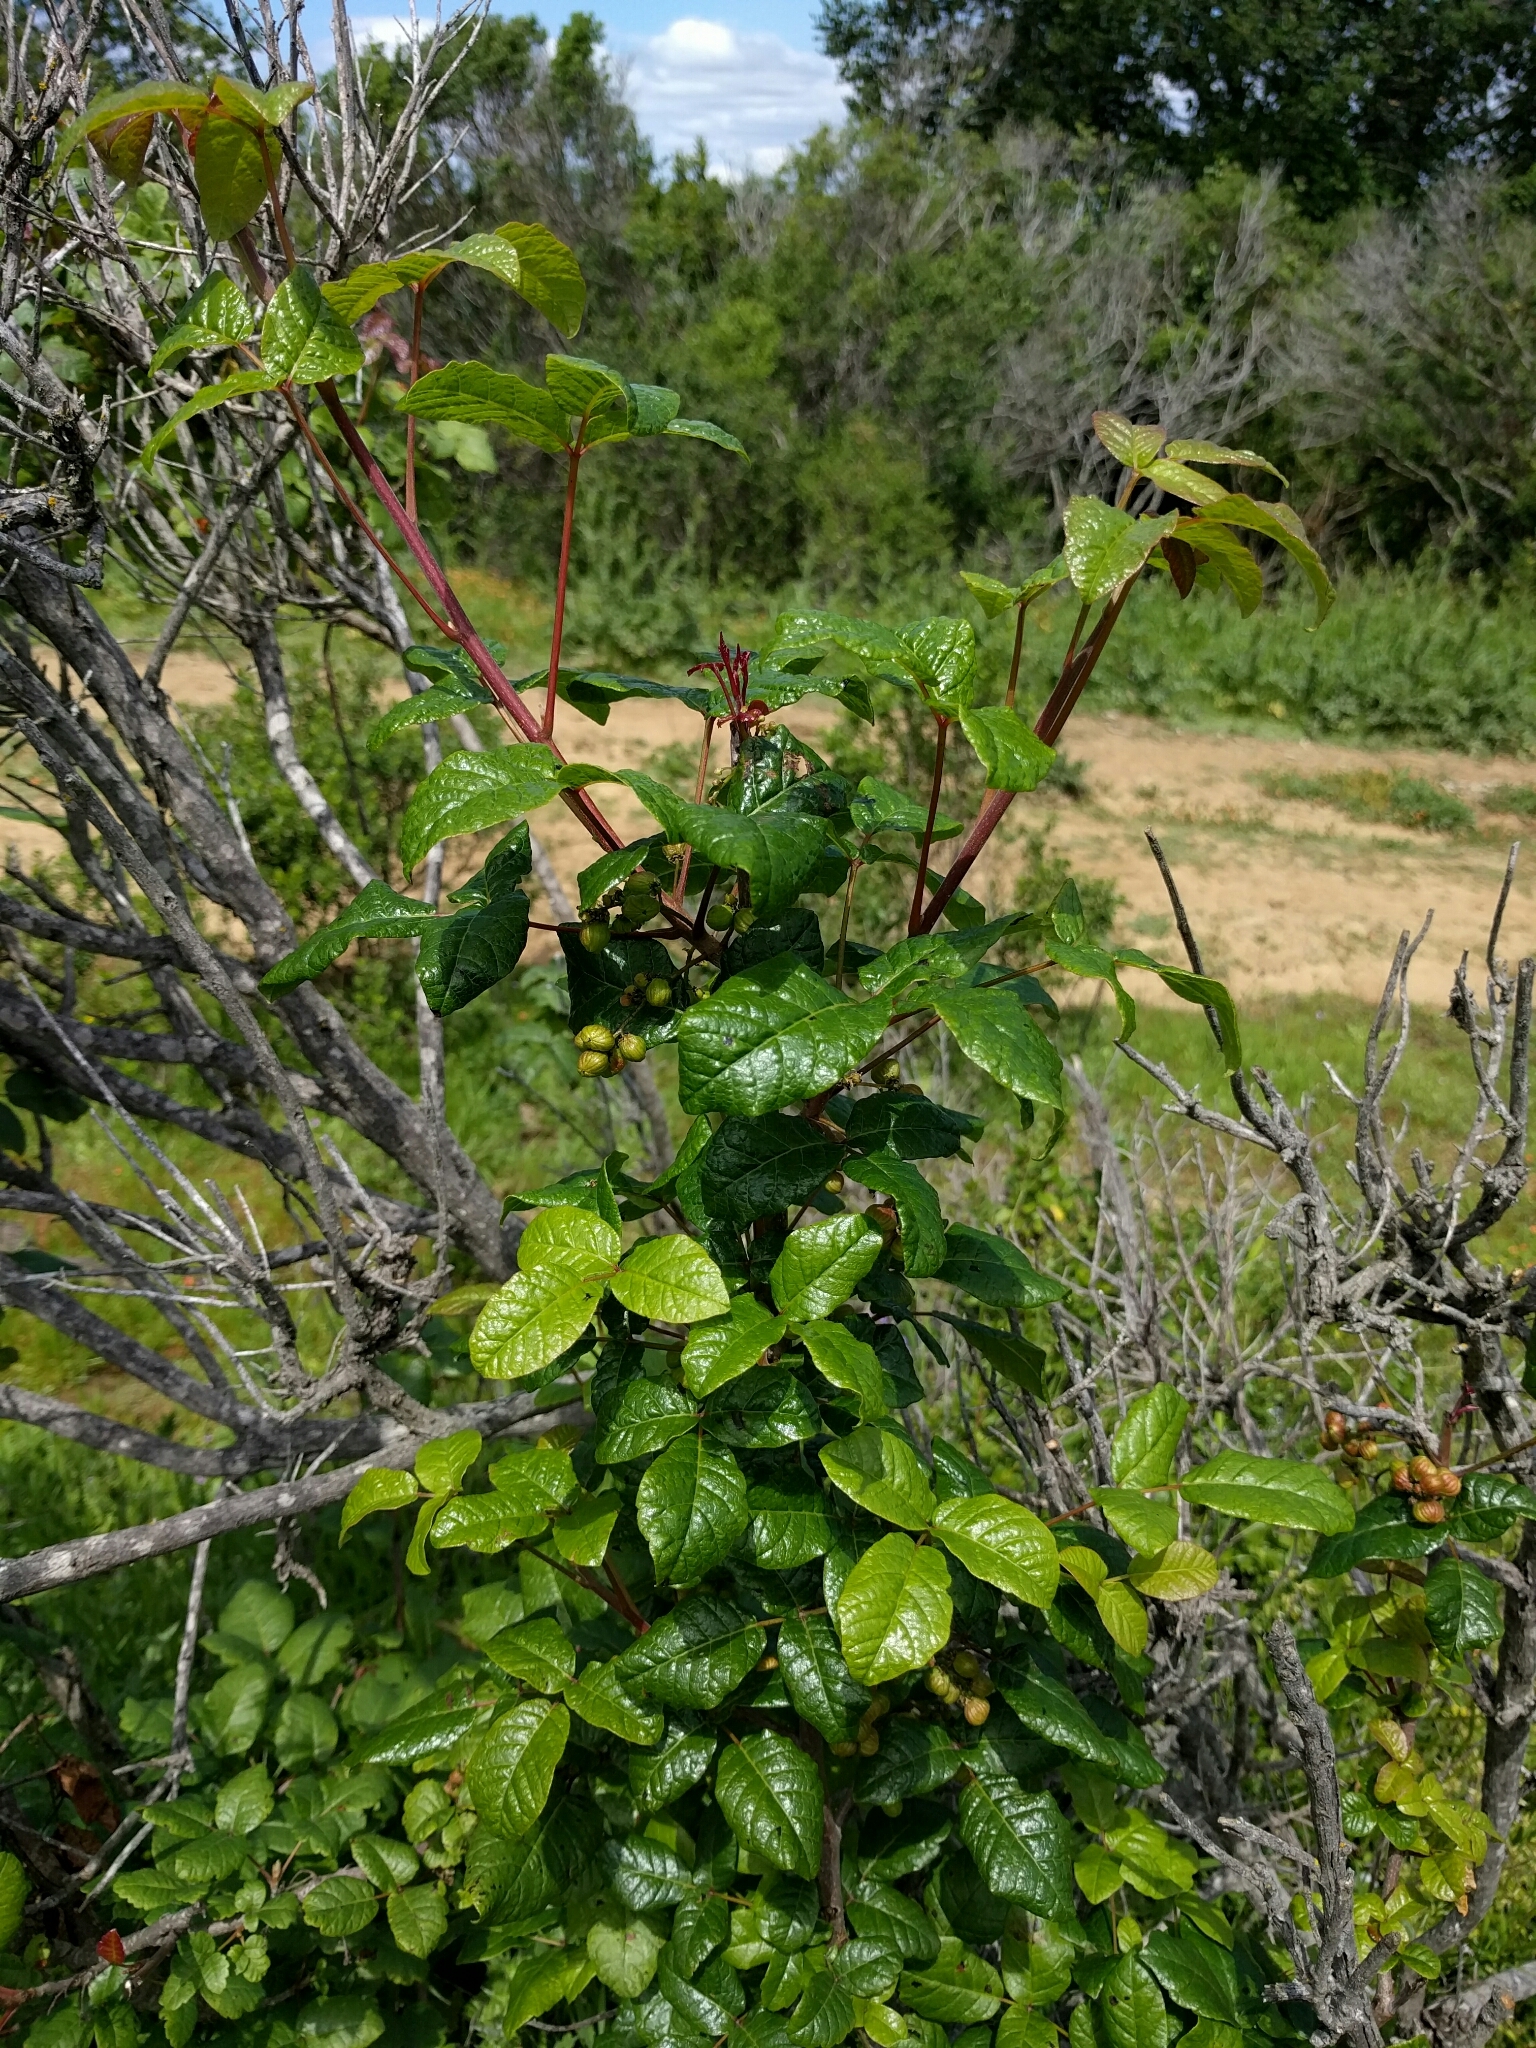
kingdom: Plantae
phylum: Tracheophyta
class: Magnoliopsida
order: Sapindales
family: Anacardiaceae
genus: Toxicodendron
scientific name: Toxicodendron diversilobum
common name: Pacific poison-oak
